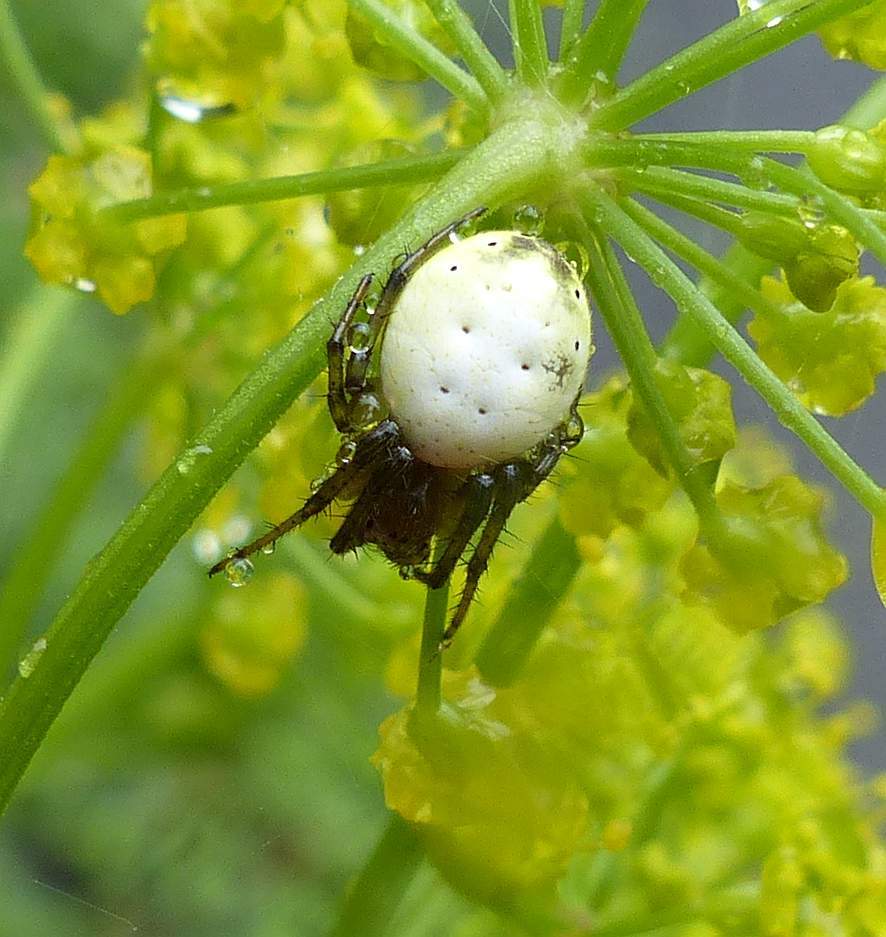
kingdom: Animalia
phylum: Arthropoda
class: Arachnida
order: Araneae
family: Araneidae
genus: Araniella
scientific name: Araniella displicata
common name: Sixspotted orb weaver
